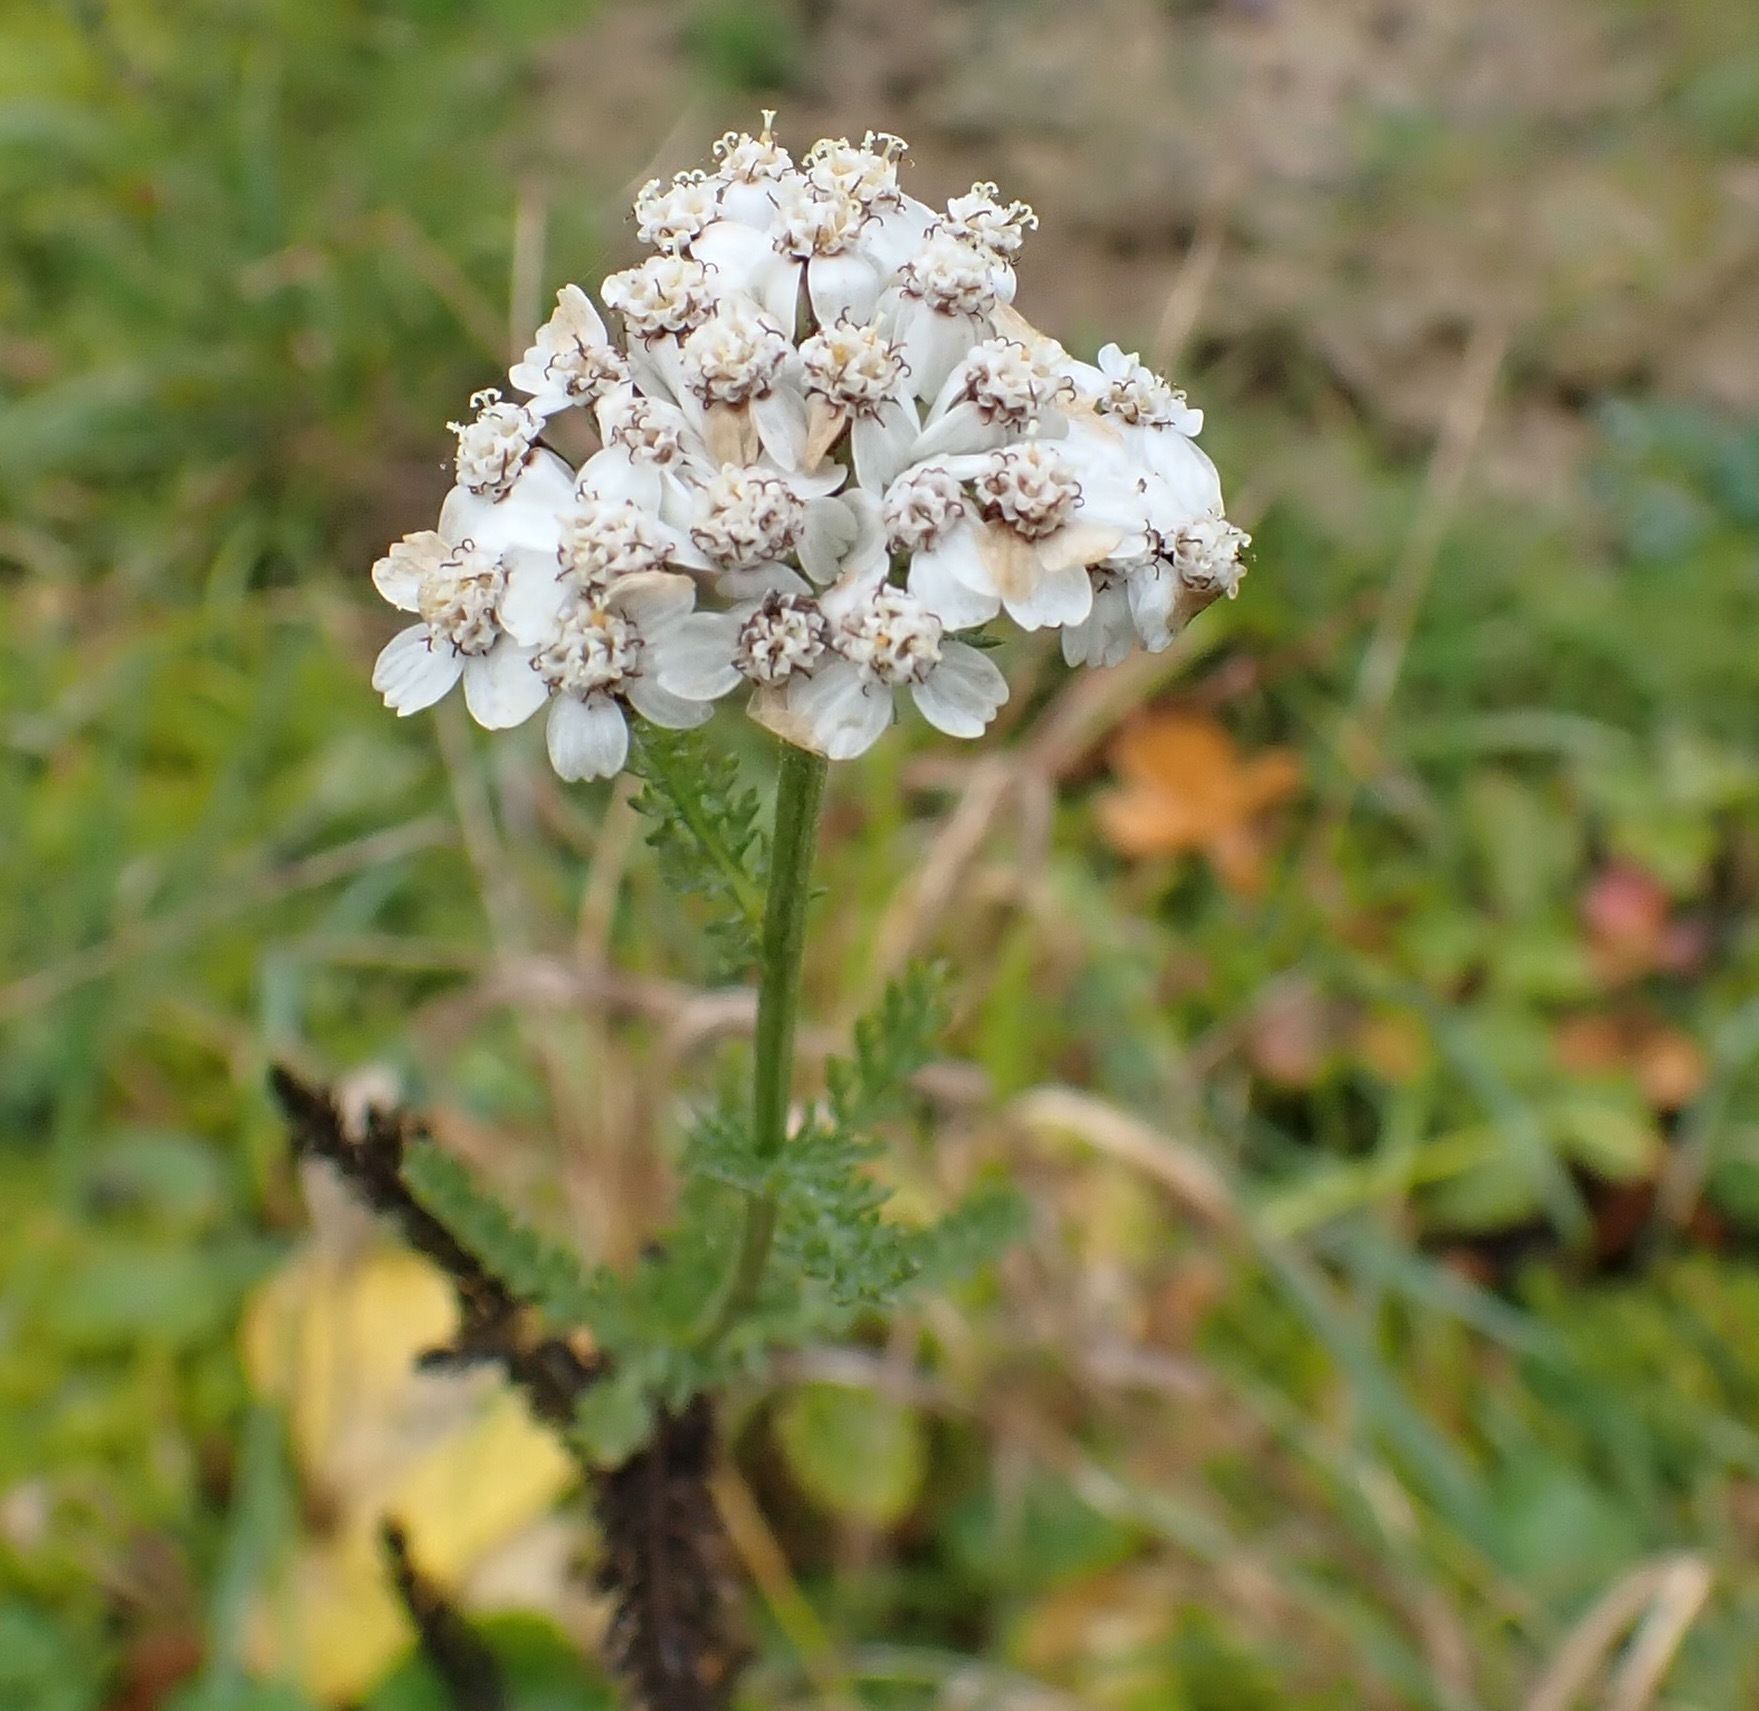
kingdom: Plantae
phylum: Tracheophyta
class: Magnoliopsida
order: Asterales
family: Asteraceae
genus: Achillea
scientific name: Achillea millefolium
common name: Yarrow
